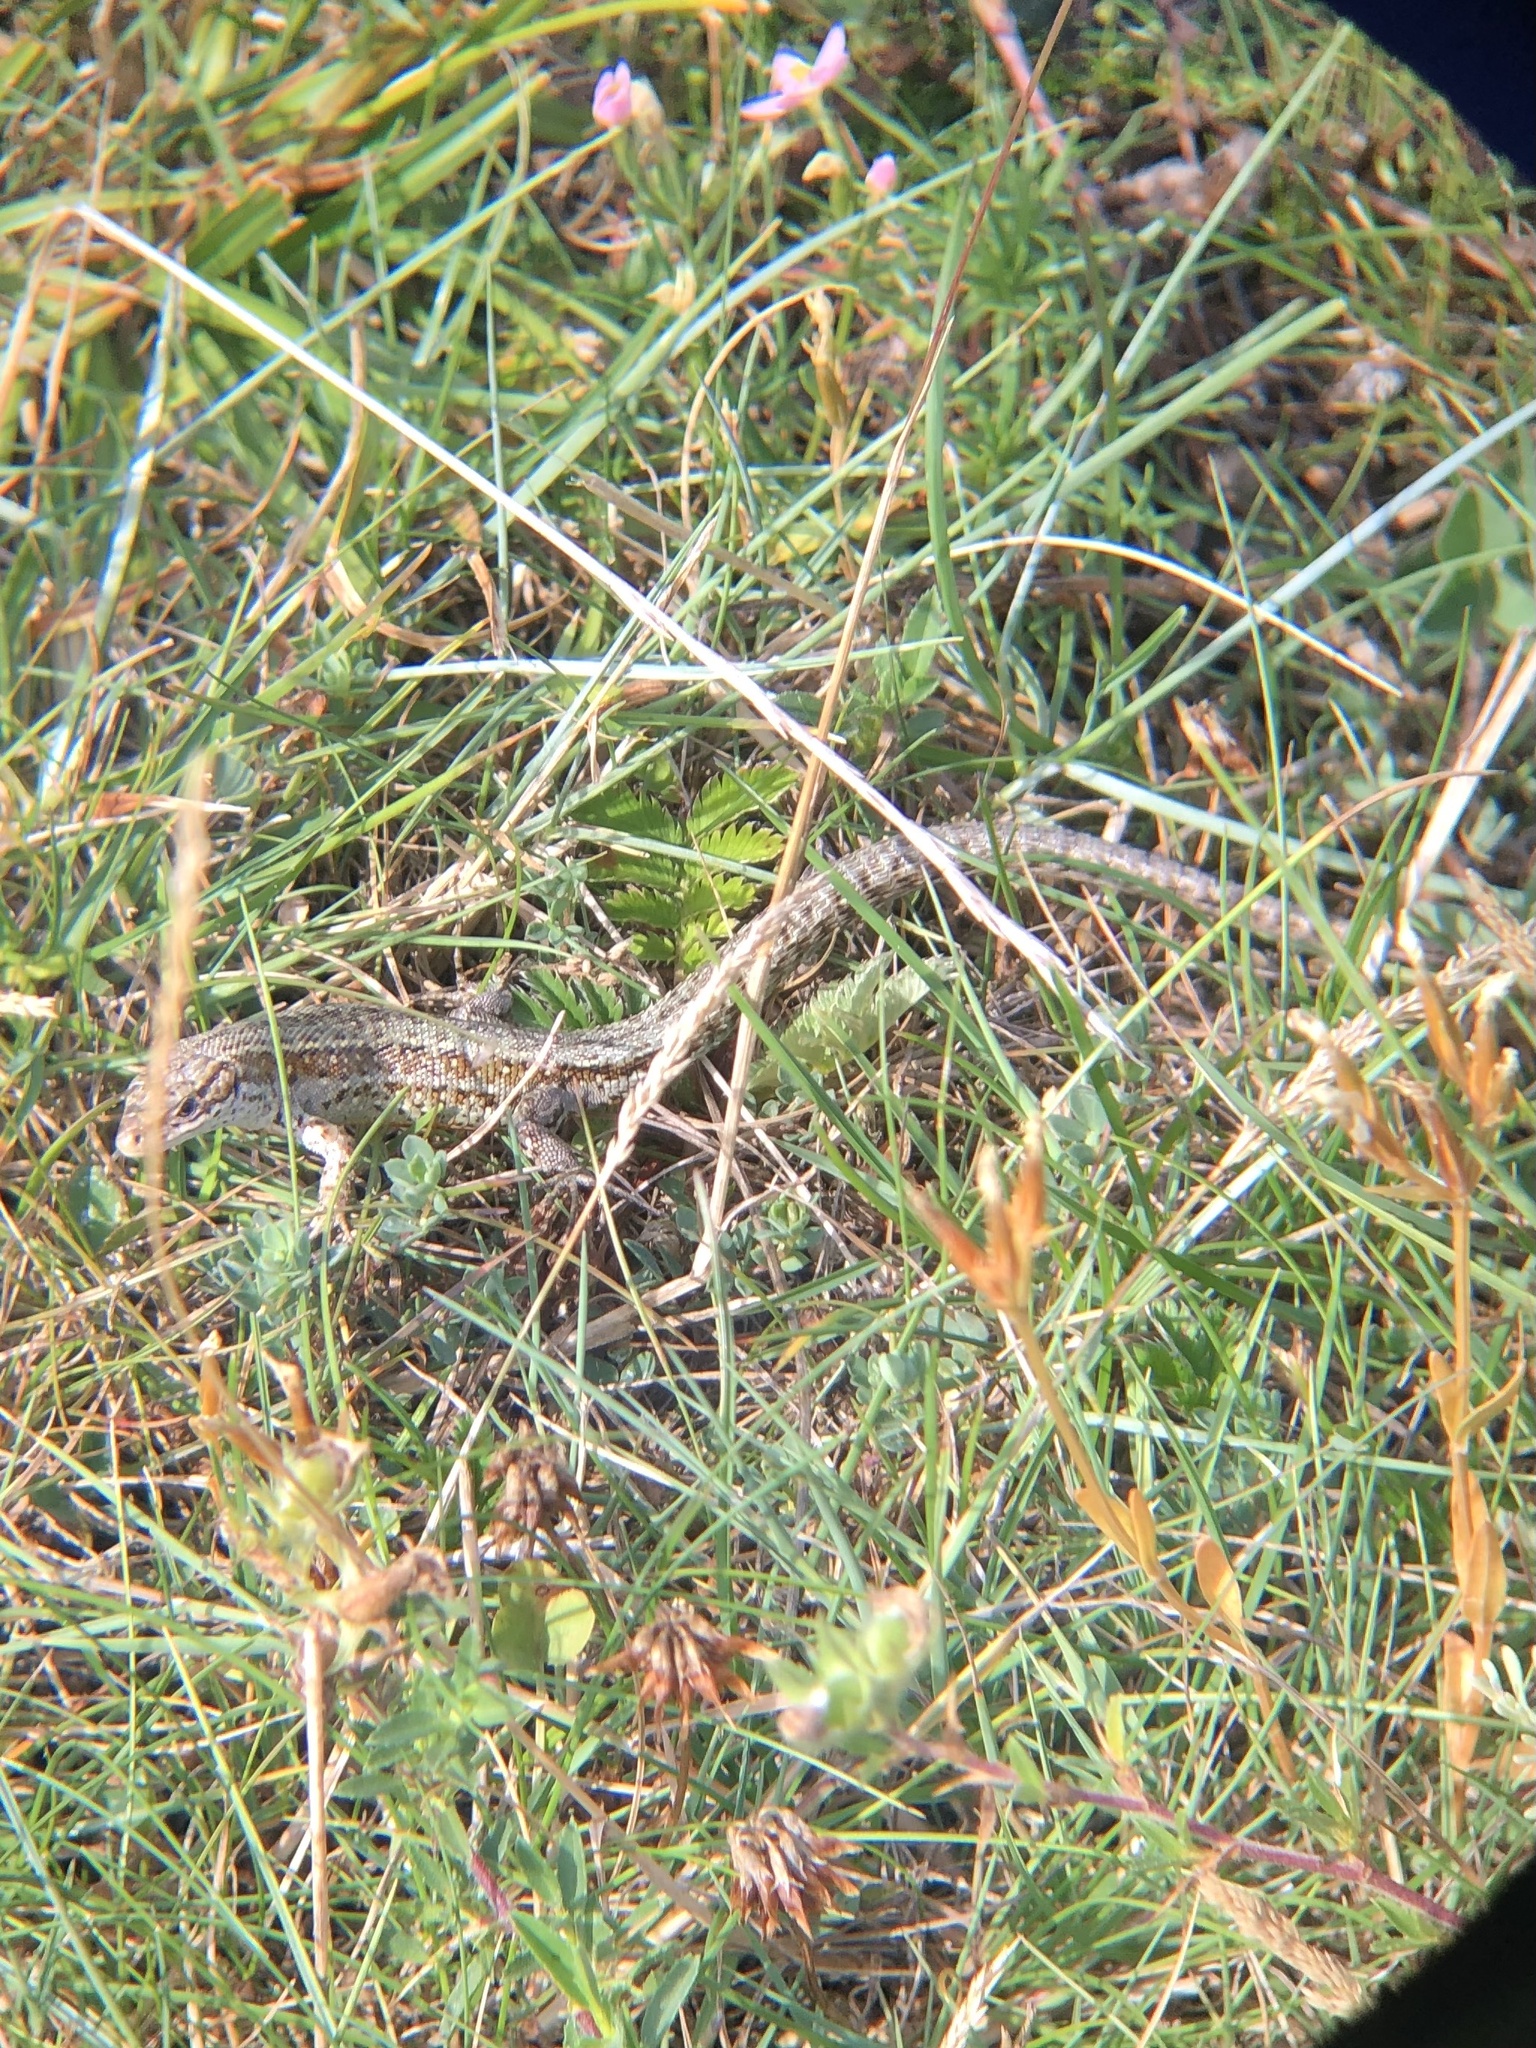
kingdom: Animalia
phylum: Chordata
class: Squamata
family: Lacertidae
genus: Zootoca
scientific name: Zootoca vivipara
